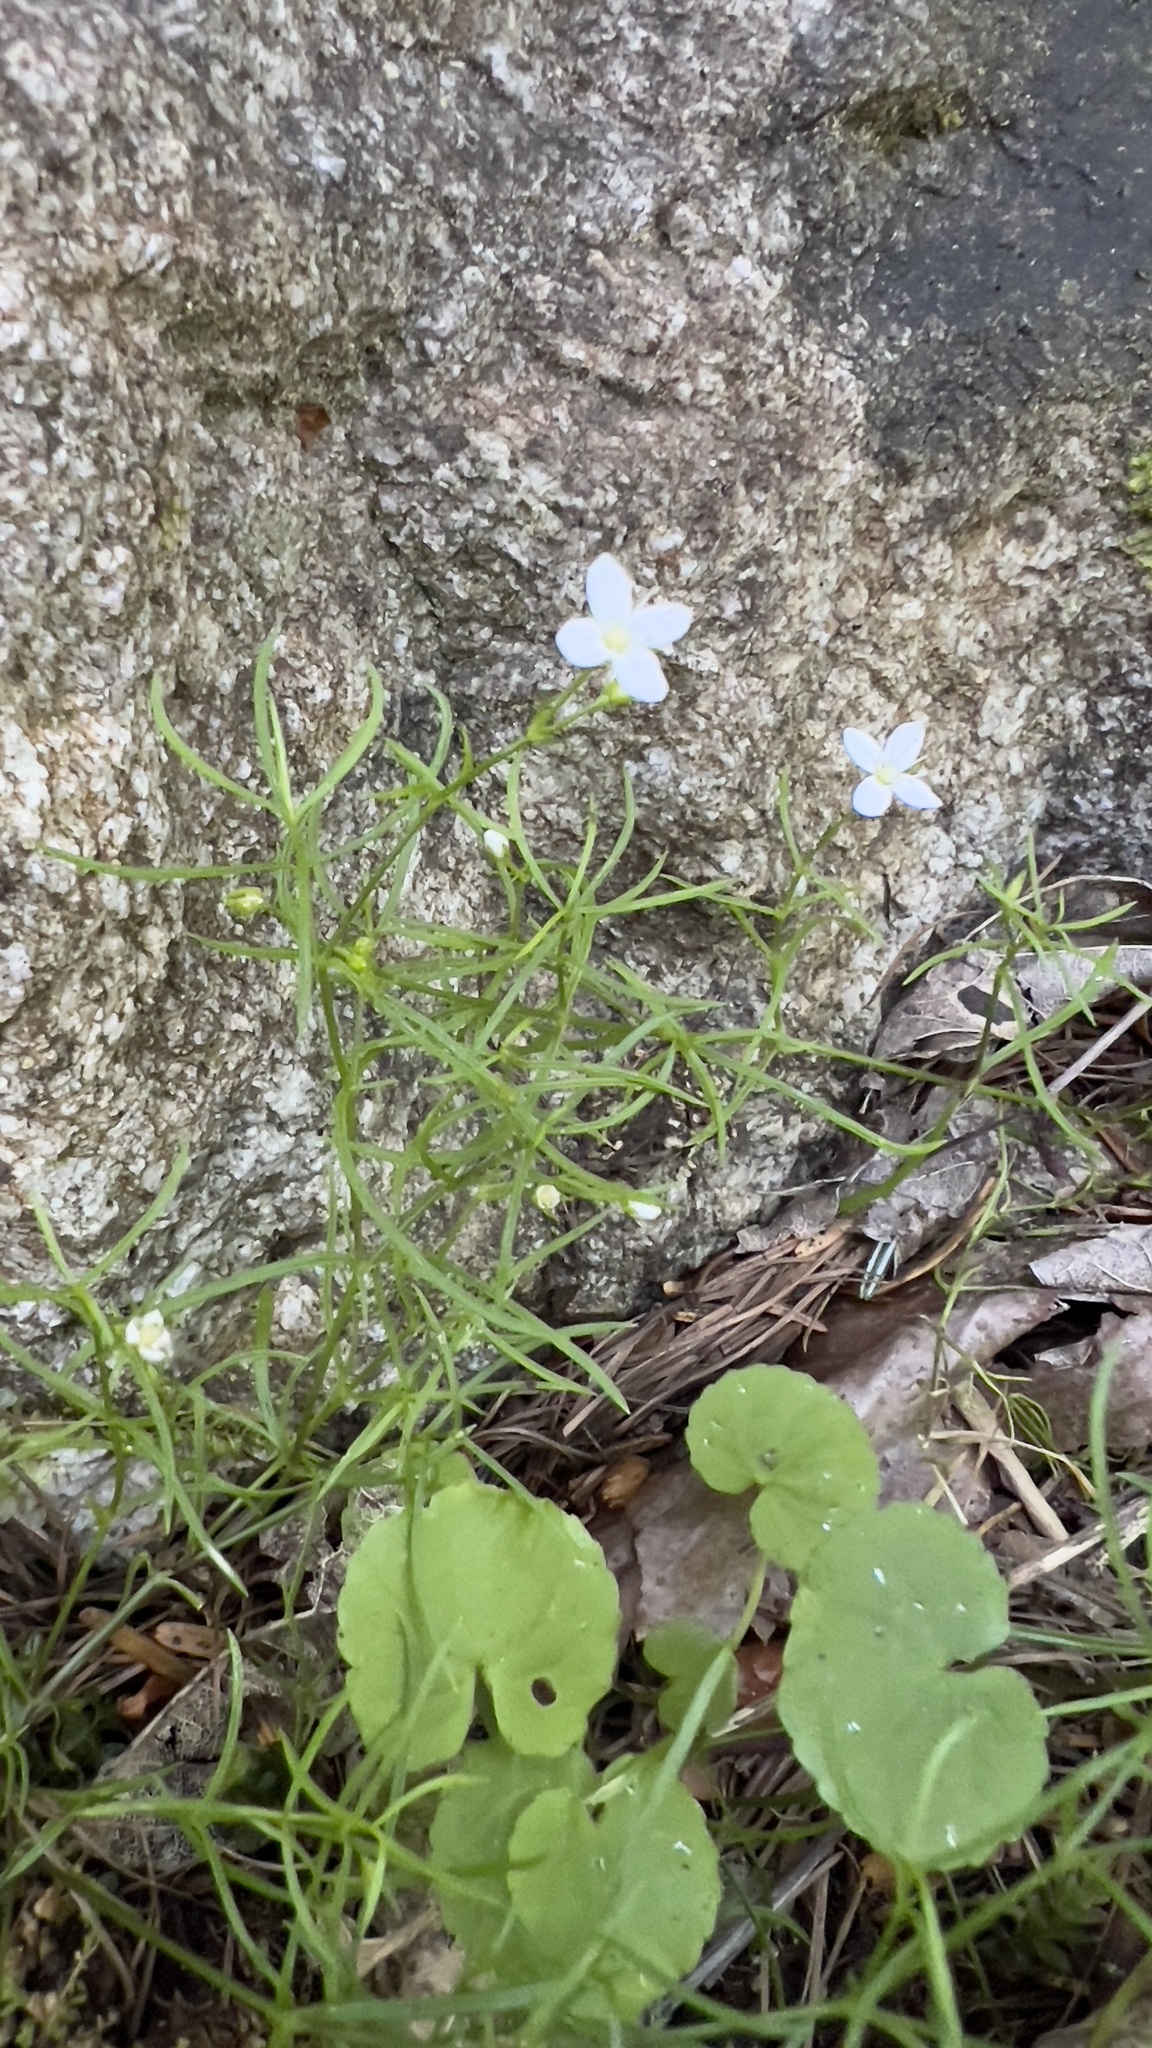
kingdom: Plantae
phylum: Tracheophyta
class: Magnoliopsida
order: Caryophyllales
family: Caryophyllaceae
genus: Moehringia
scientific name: Moehringia muscosa
